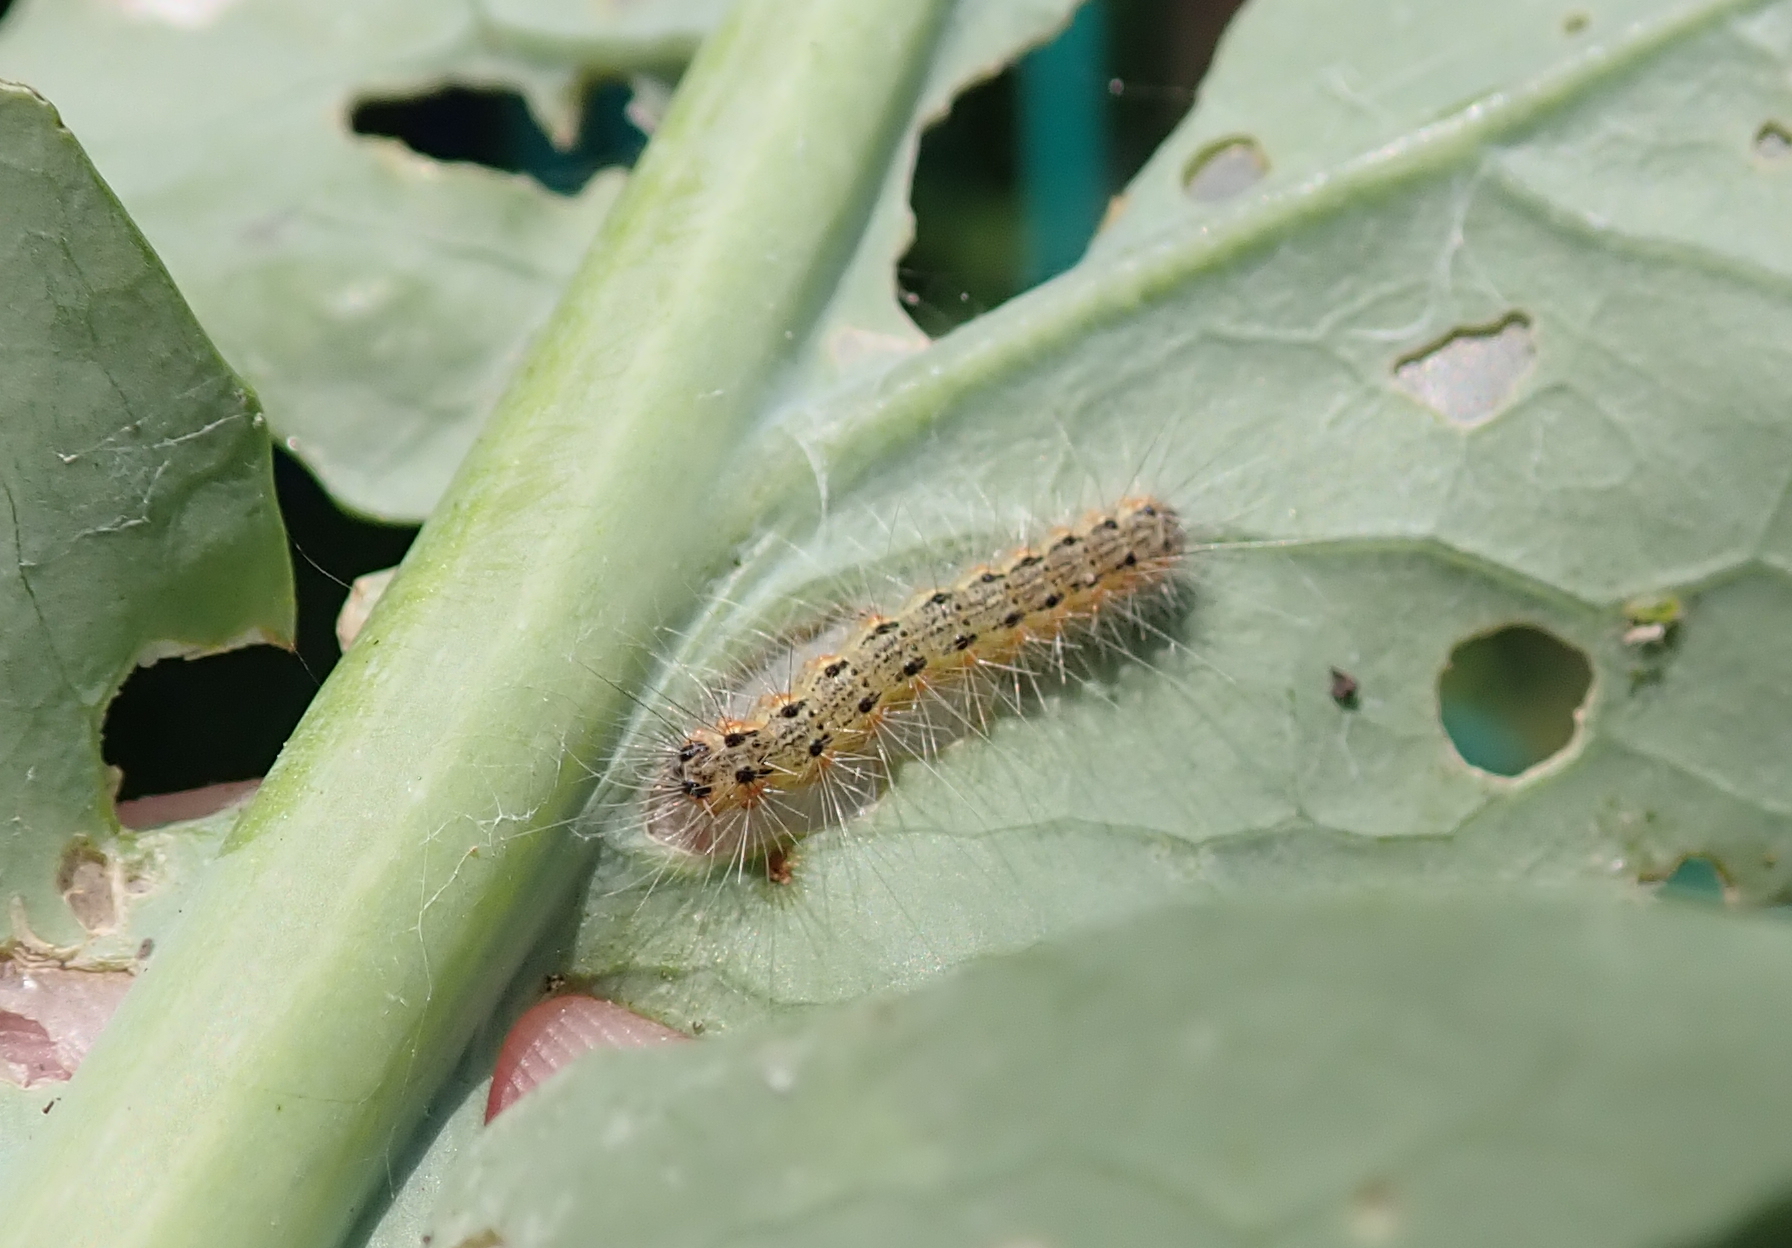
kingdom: Animalia
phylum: Arthropoda
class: Insecta
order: Lepidoptera
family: Erebidae
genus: Hyphantria
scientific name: Hyphantria cunea
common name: American white moth
